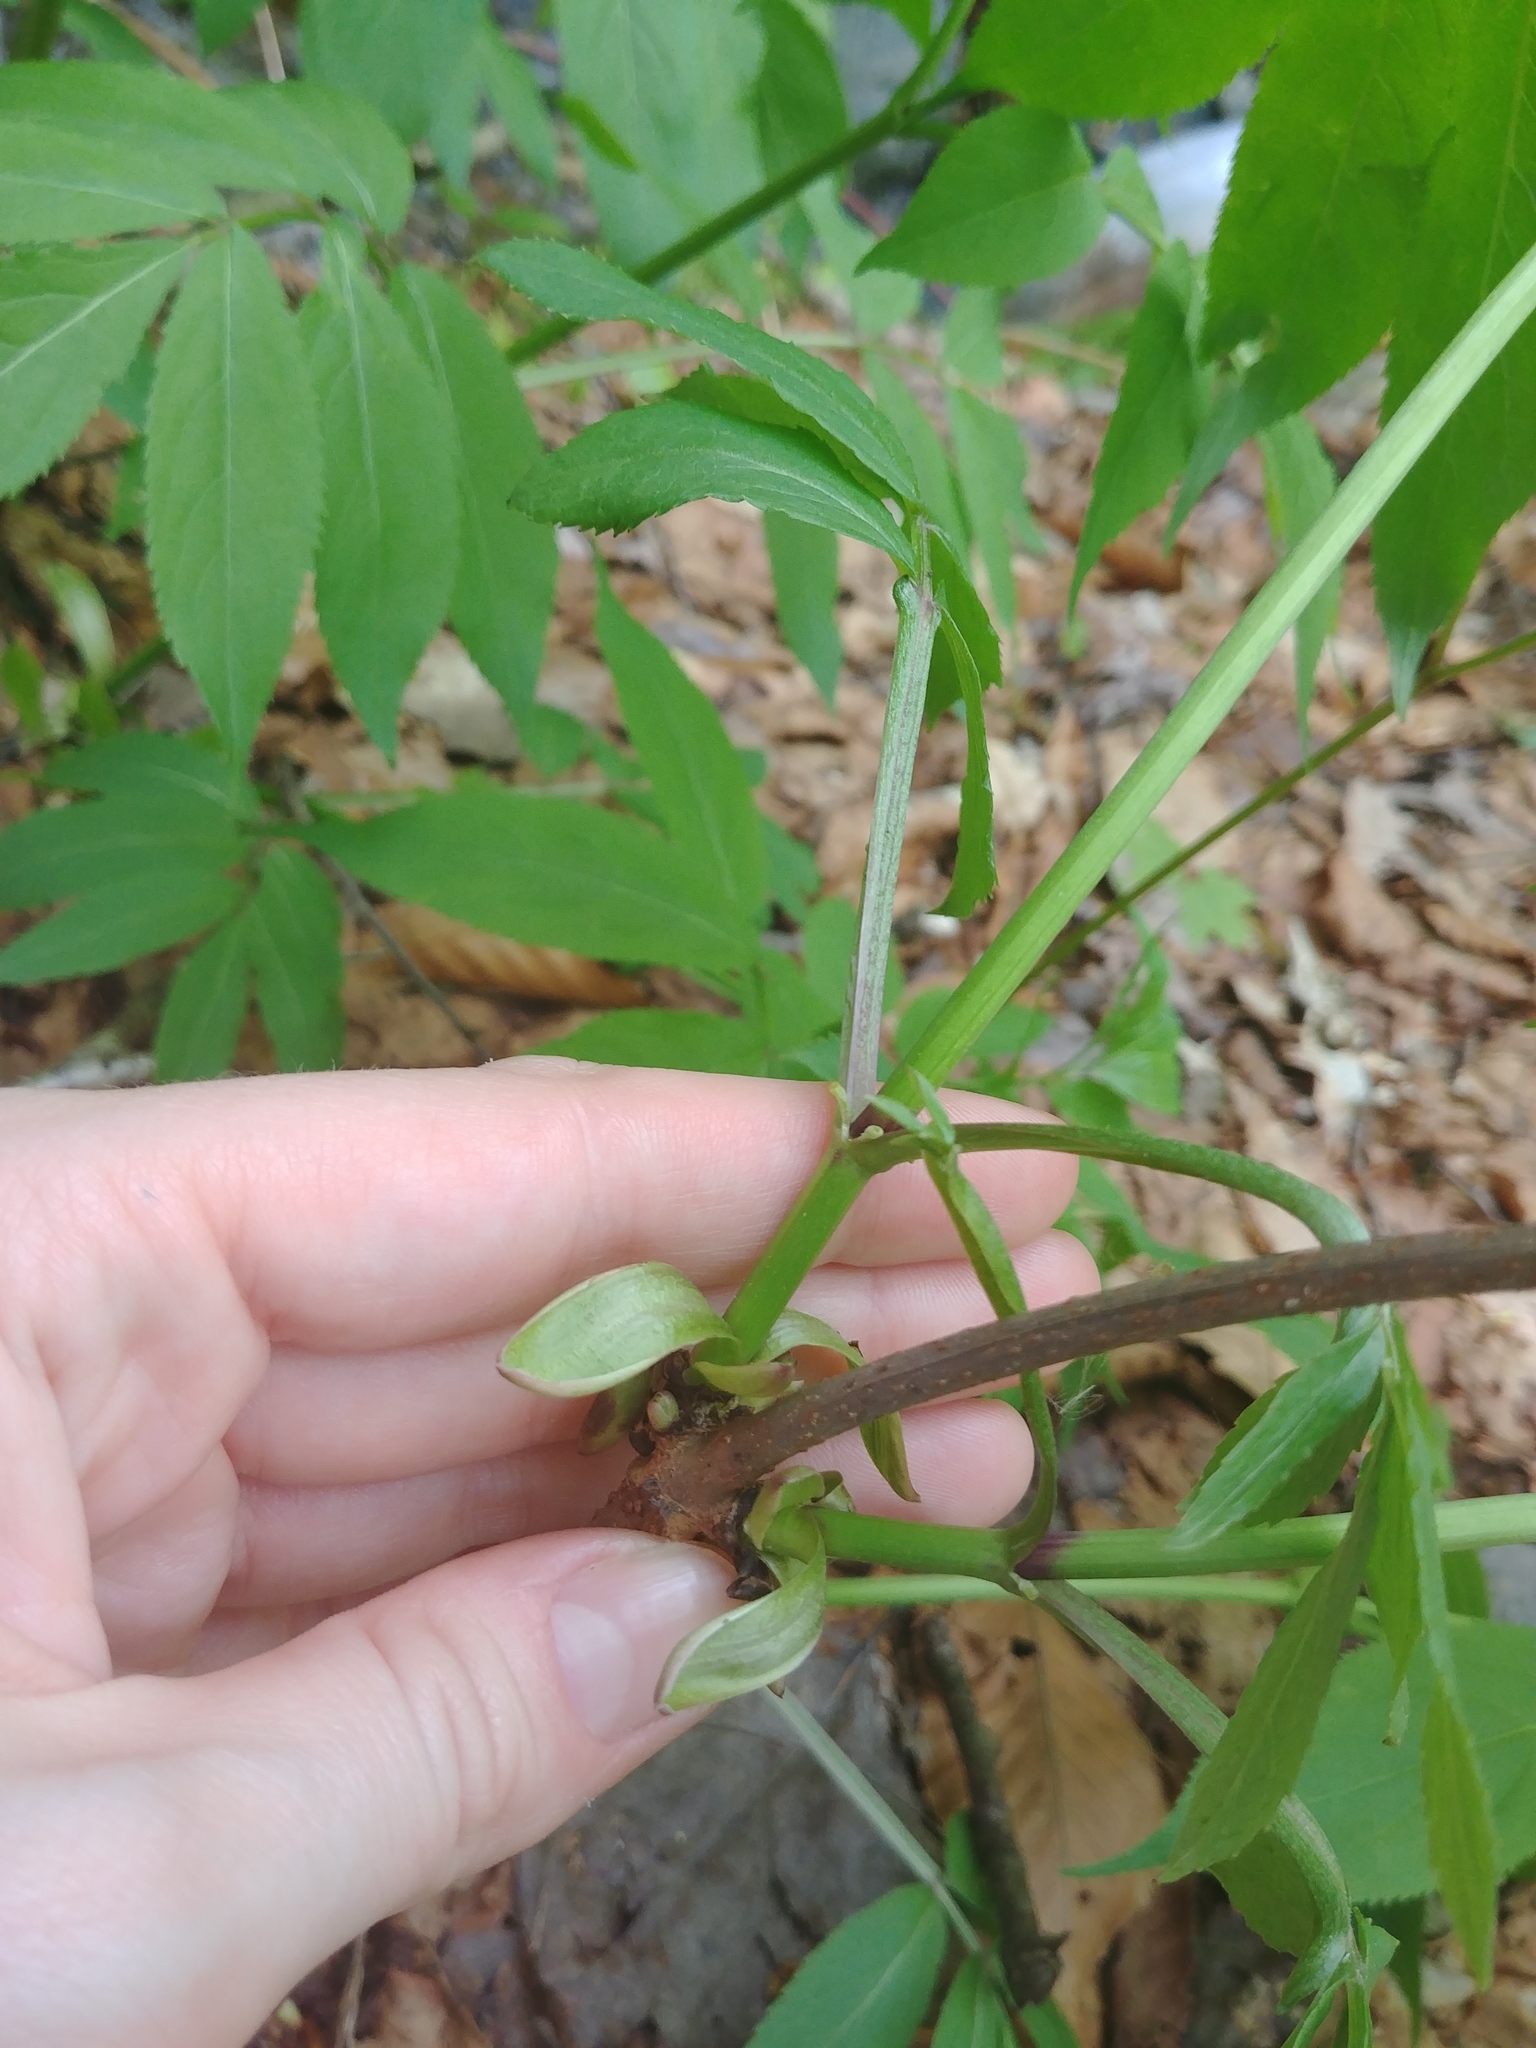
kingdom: Plantae
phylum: Tracheophyta
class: Magnoliopsida
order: Dipsacales
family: Viburnaceae
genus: Sambucus
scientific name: Sambucus racemosa
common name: Red-berried elder
